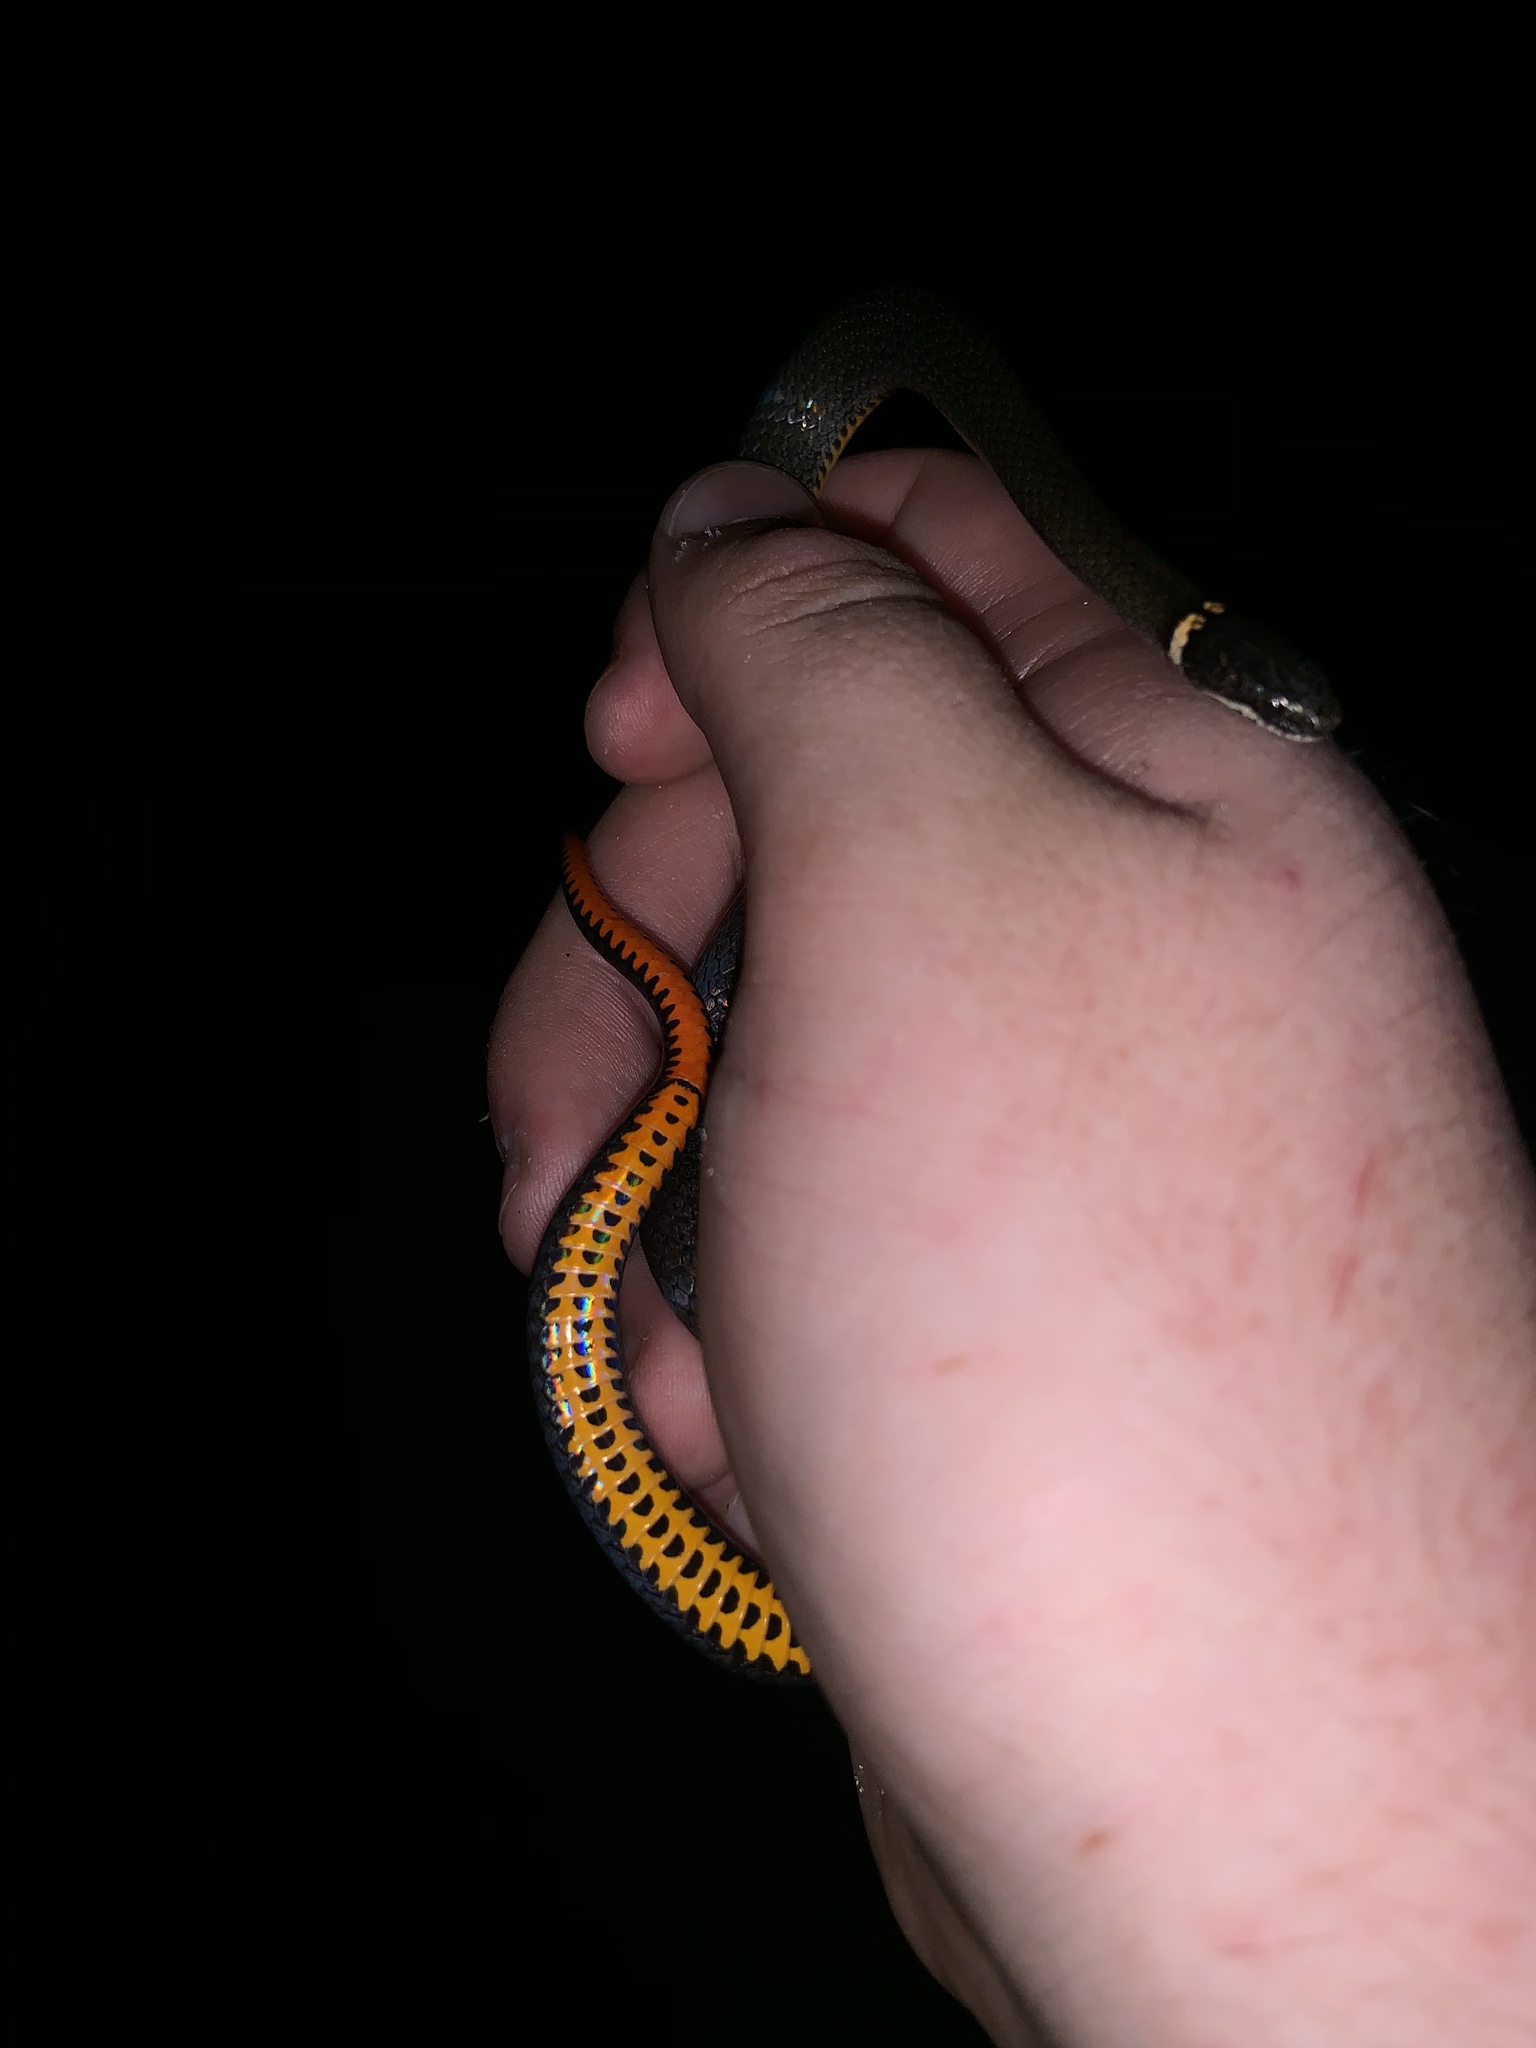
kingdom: Animalia
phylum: Chordata
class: Squamata
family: Colubridae
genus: Diadophis
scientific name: Diadophis punctatus
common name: Ringneck snake
